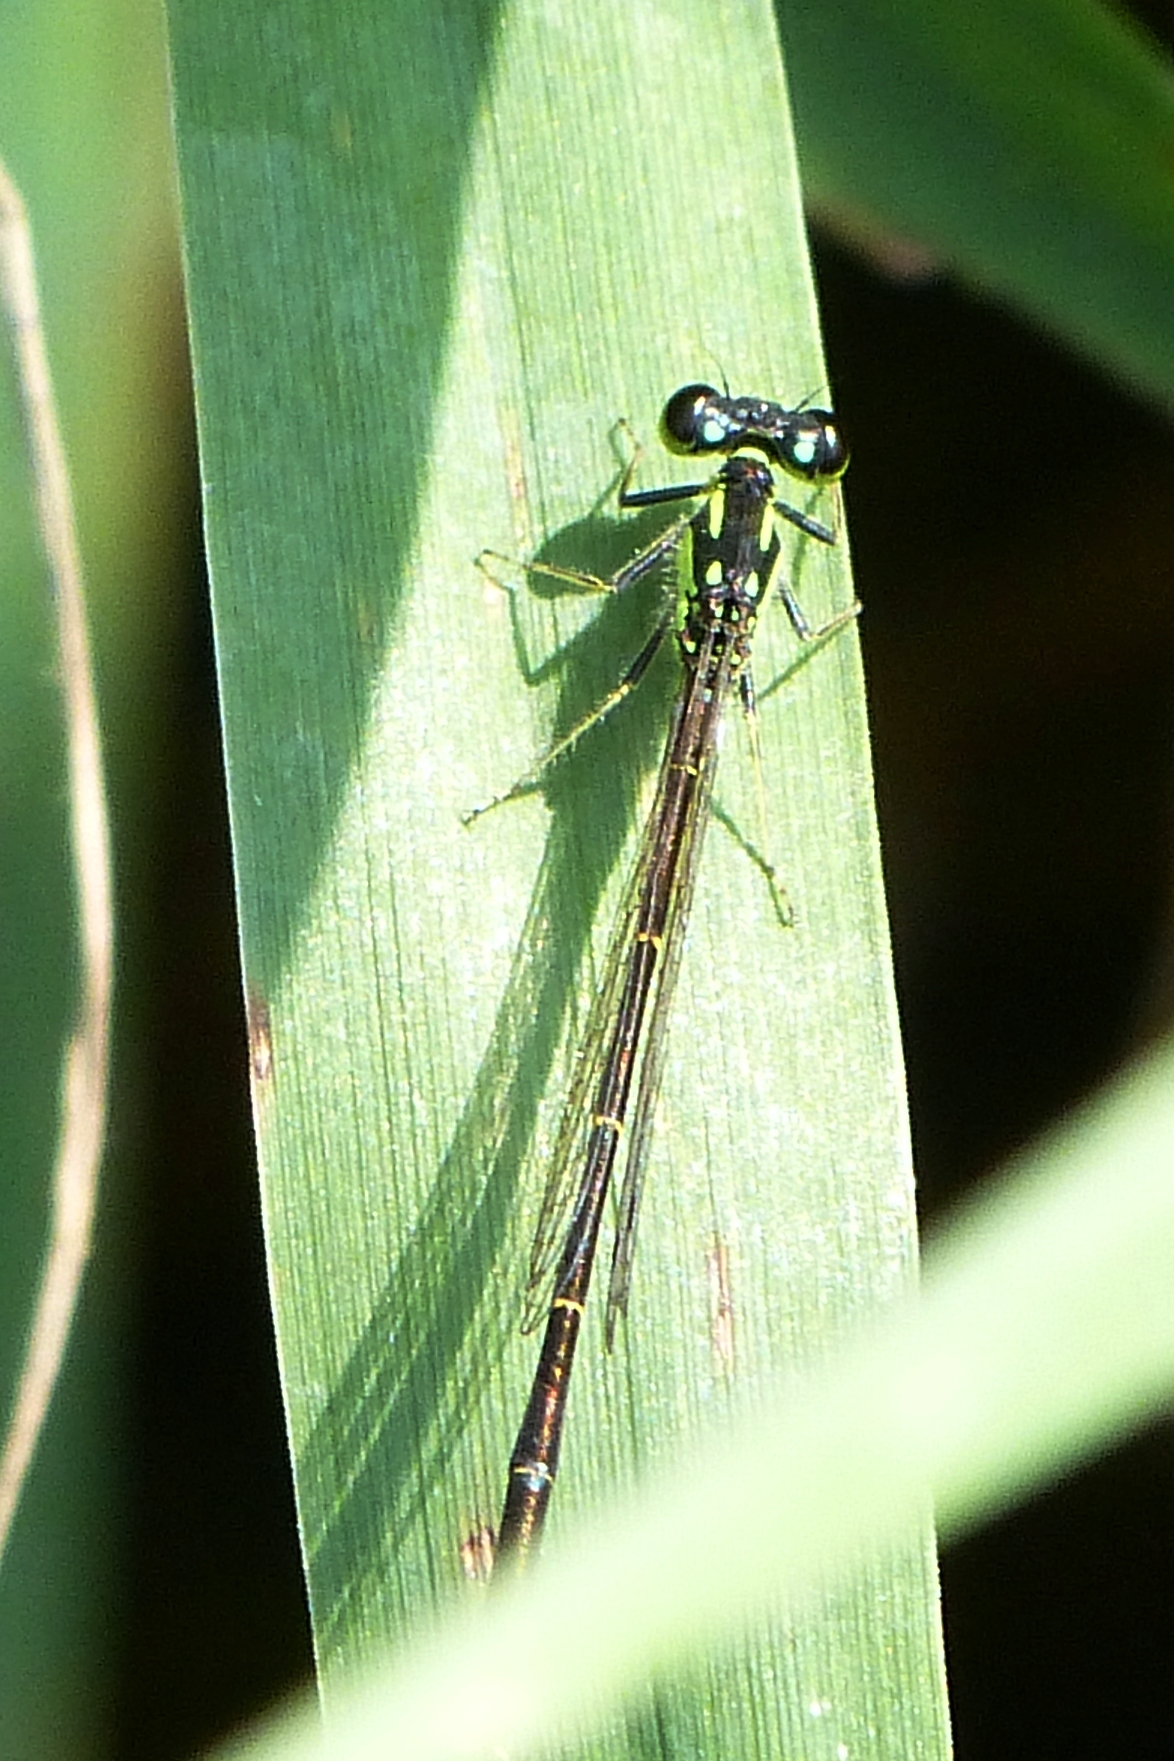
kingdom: Animalia
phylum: Arthropoda
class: Insecta
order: Odonata
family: Coenagrionidae
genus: Ischnura
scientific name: Ischnura posita
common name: Fragile forktail
